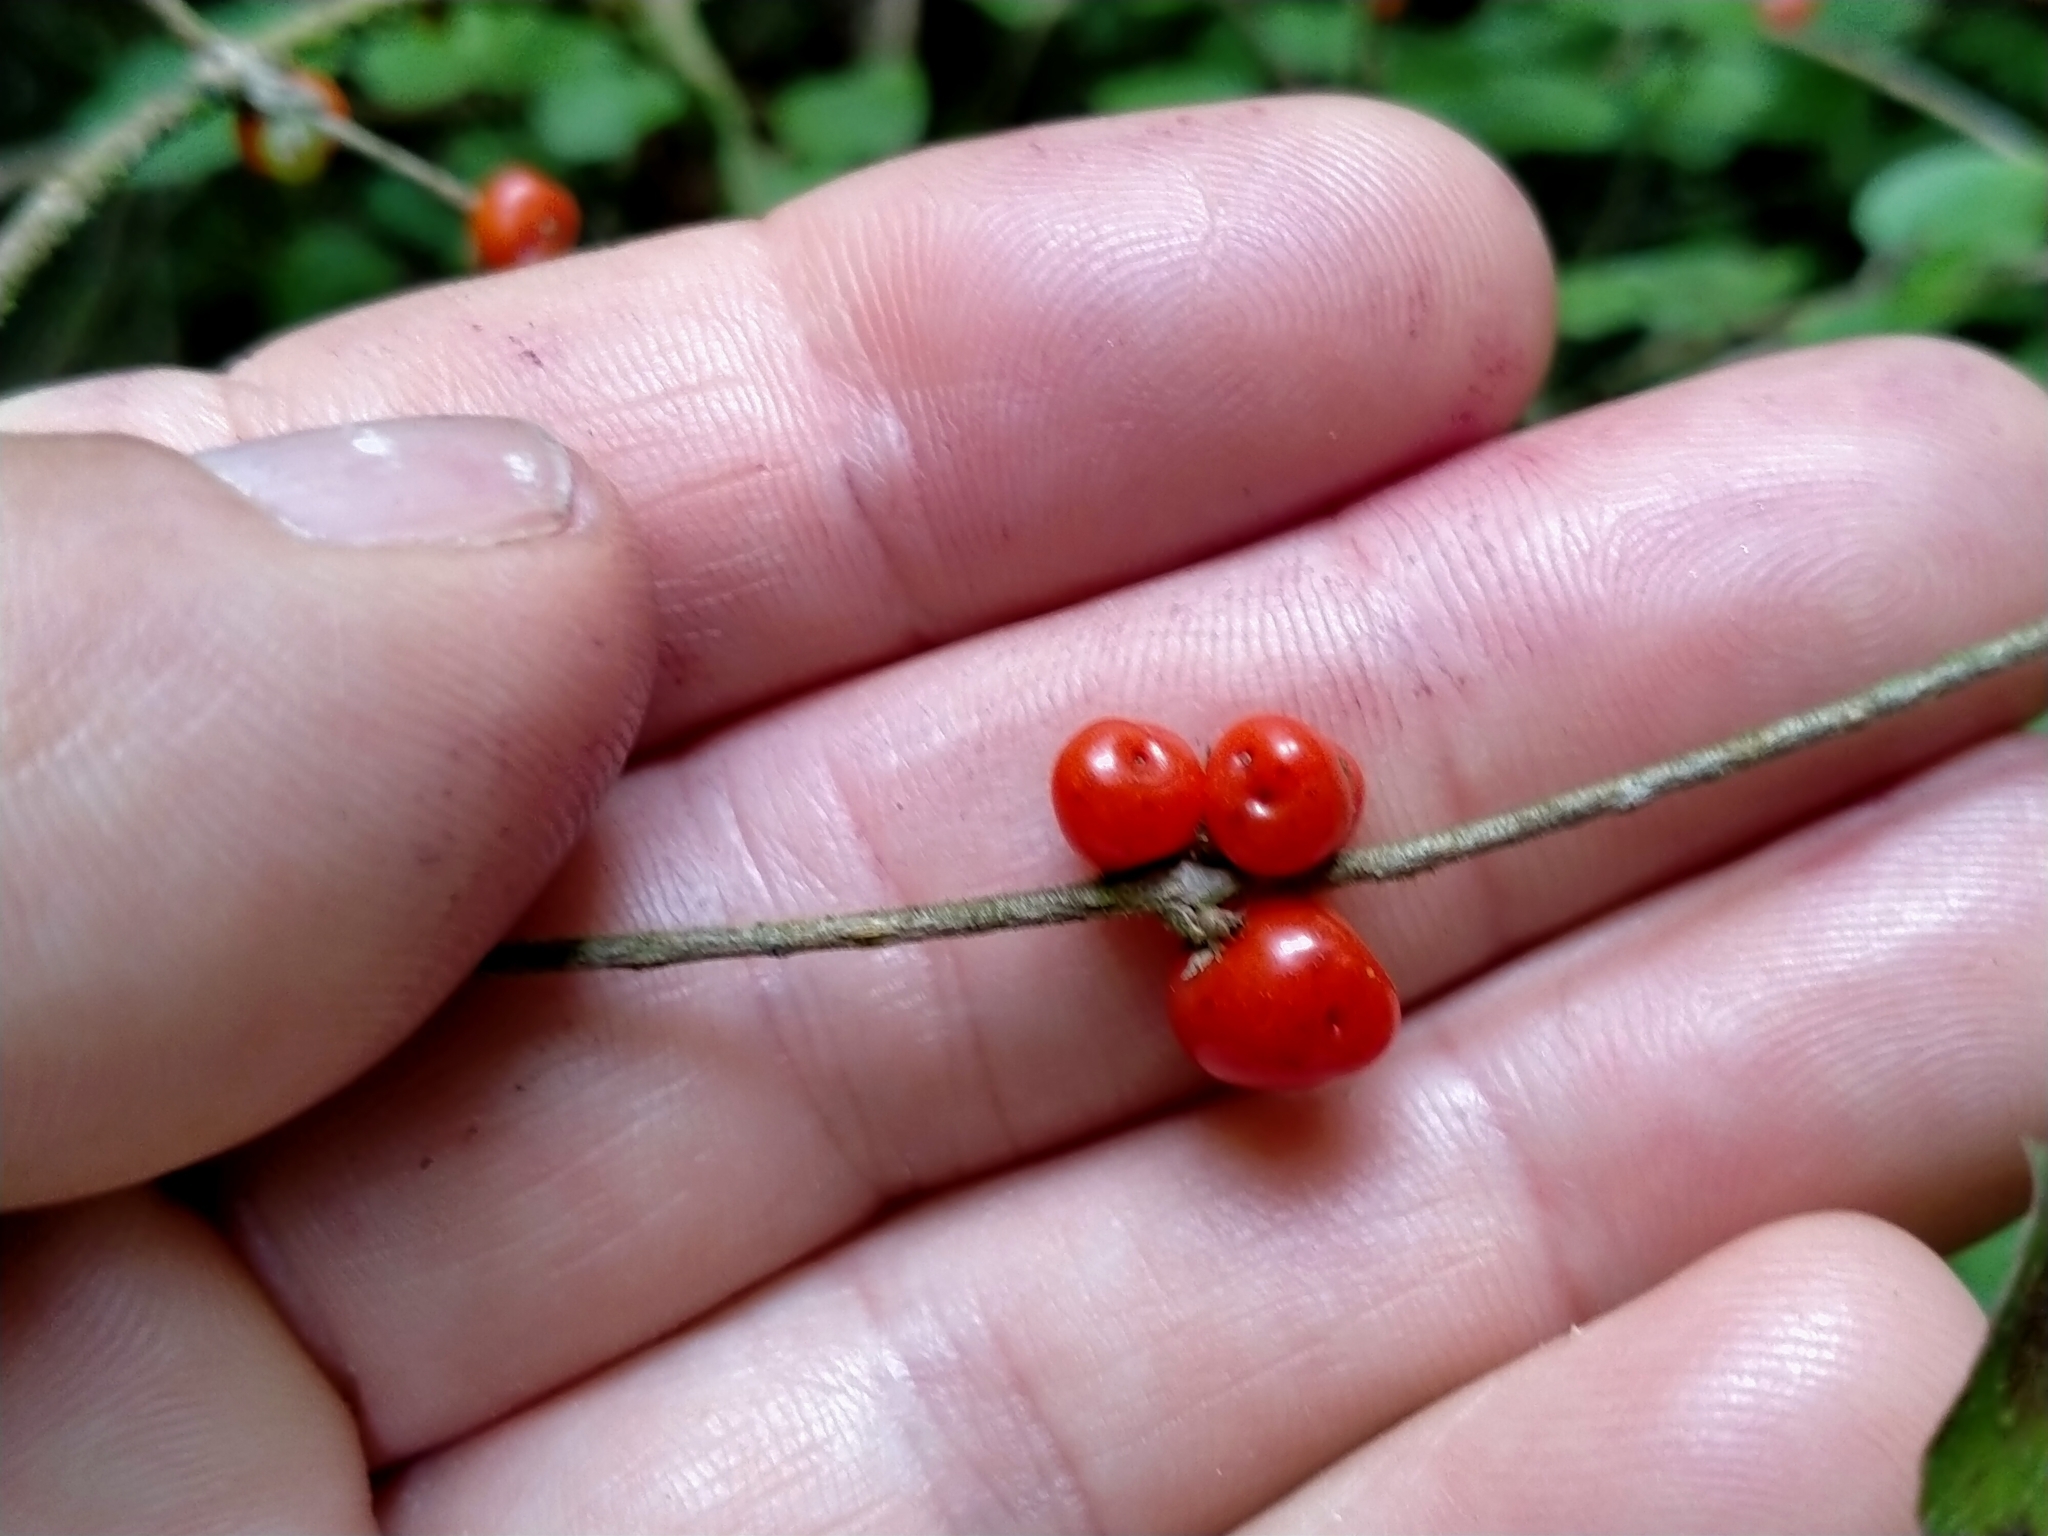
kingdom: Plantae
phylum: Tracheophyta
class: Magnoliopsida
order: Gentianales
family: Rubiaceae
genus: Coprosma
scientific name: Coprosma rotundifolia
